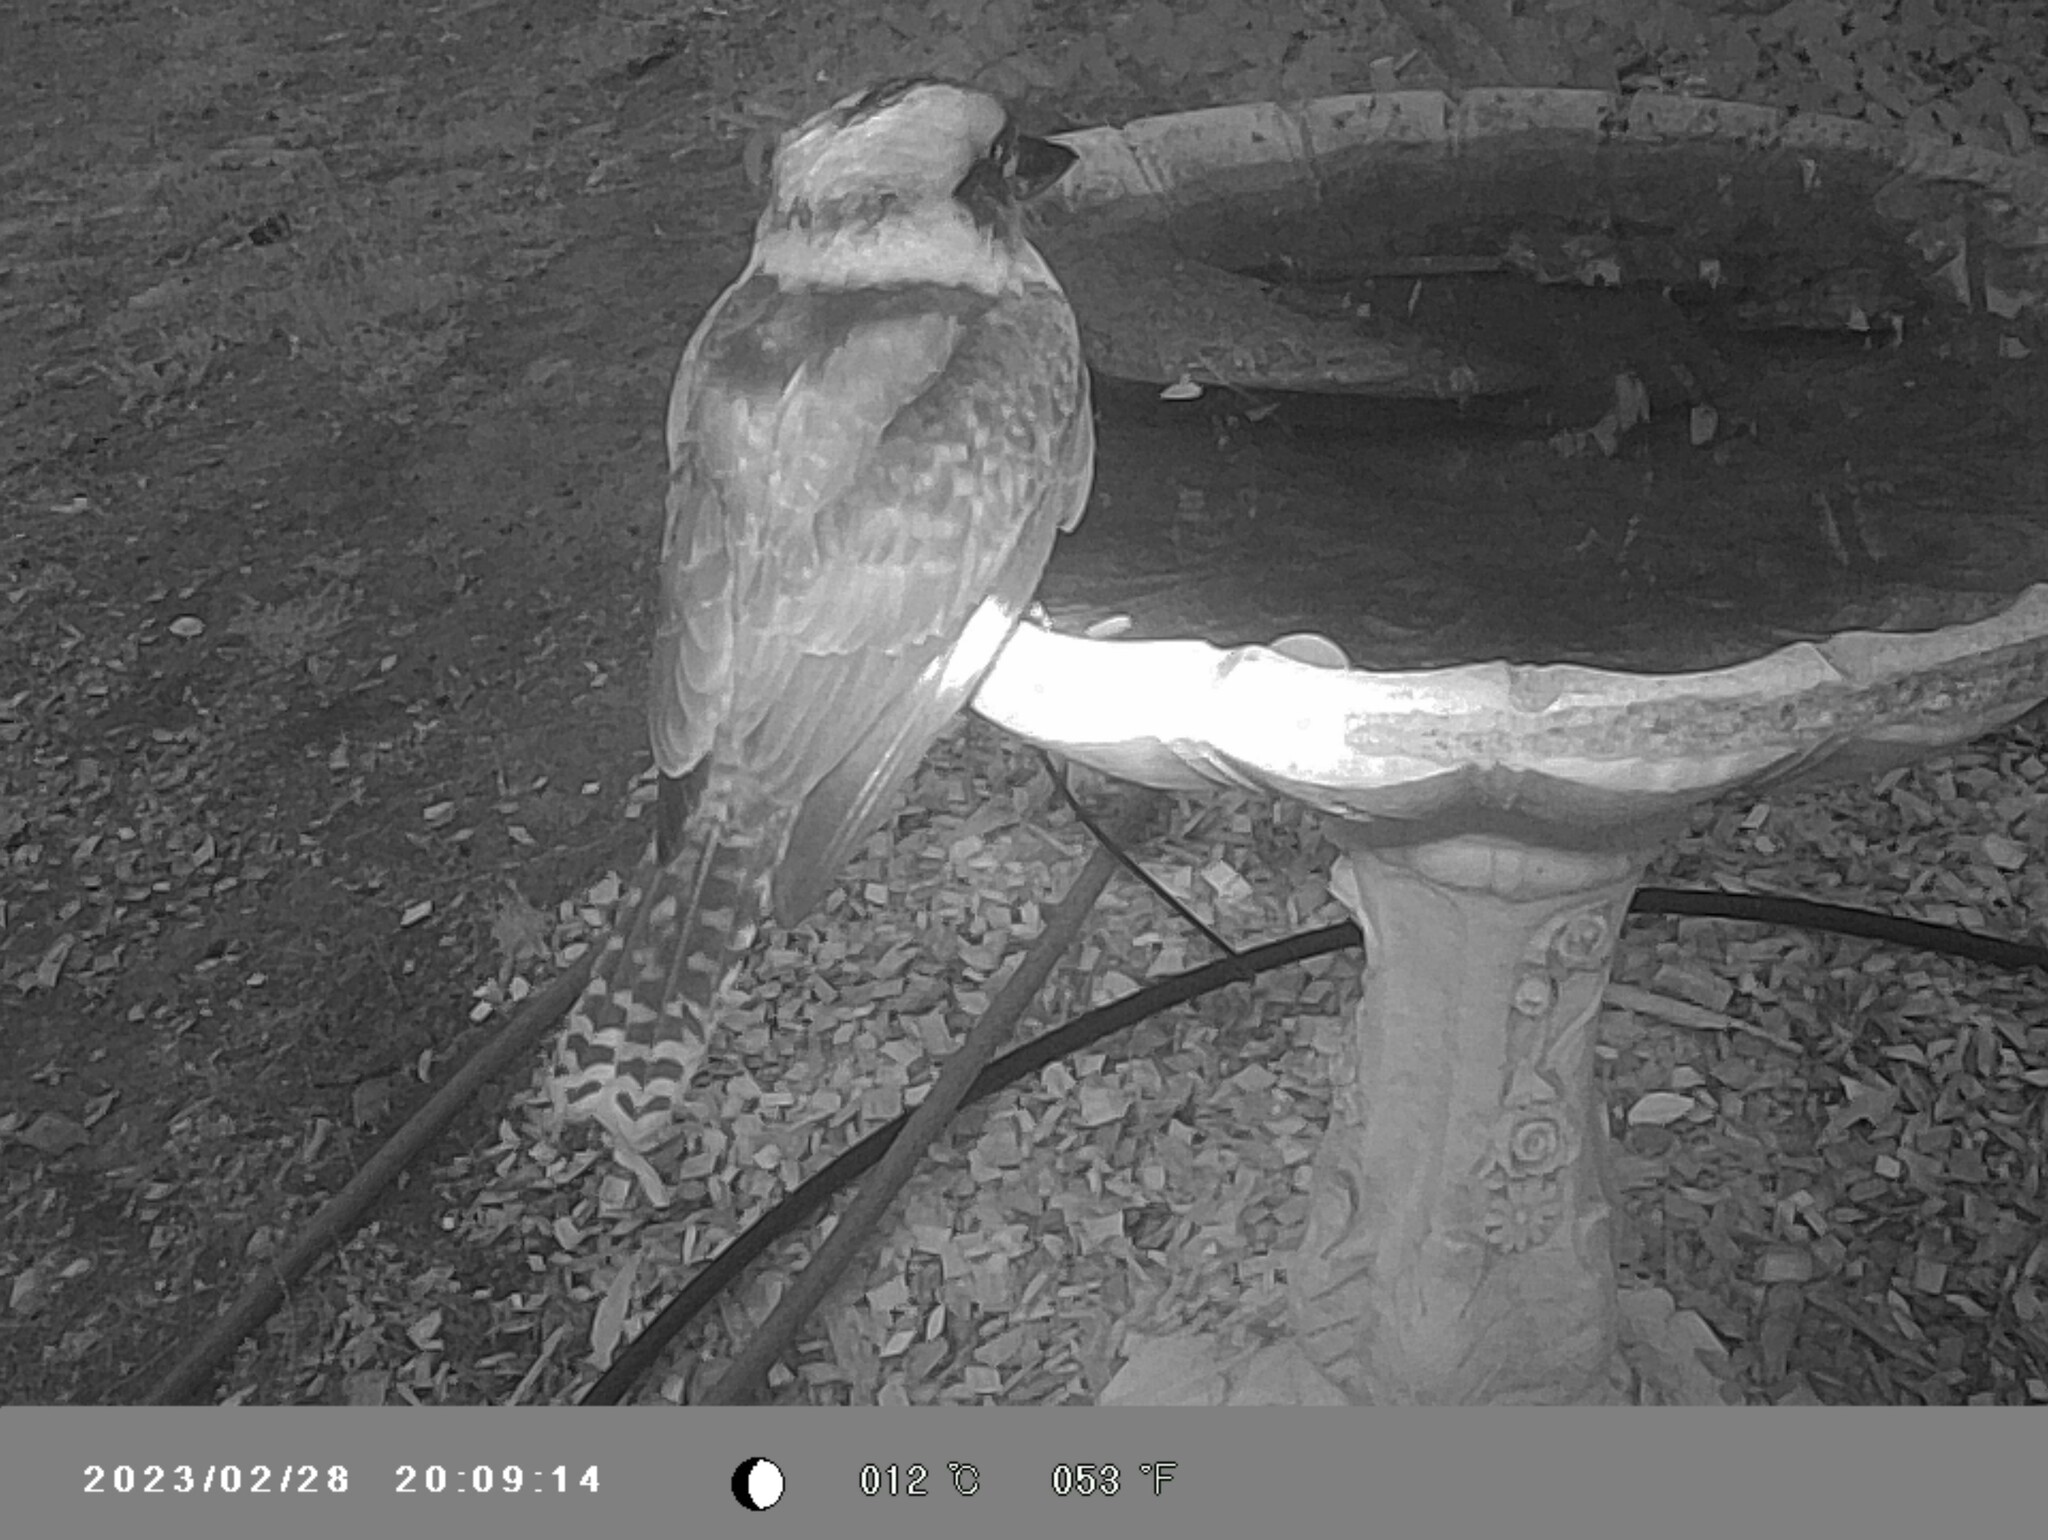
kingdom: Animalia
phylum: Chordata
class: Aves
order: Coraciiformes
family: Alcedinidae
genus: Dacelo
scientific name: Dacelo novaeguineae
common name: Laughing kookaburra
